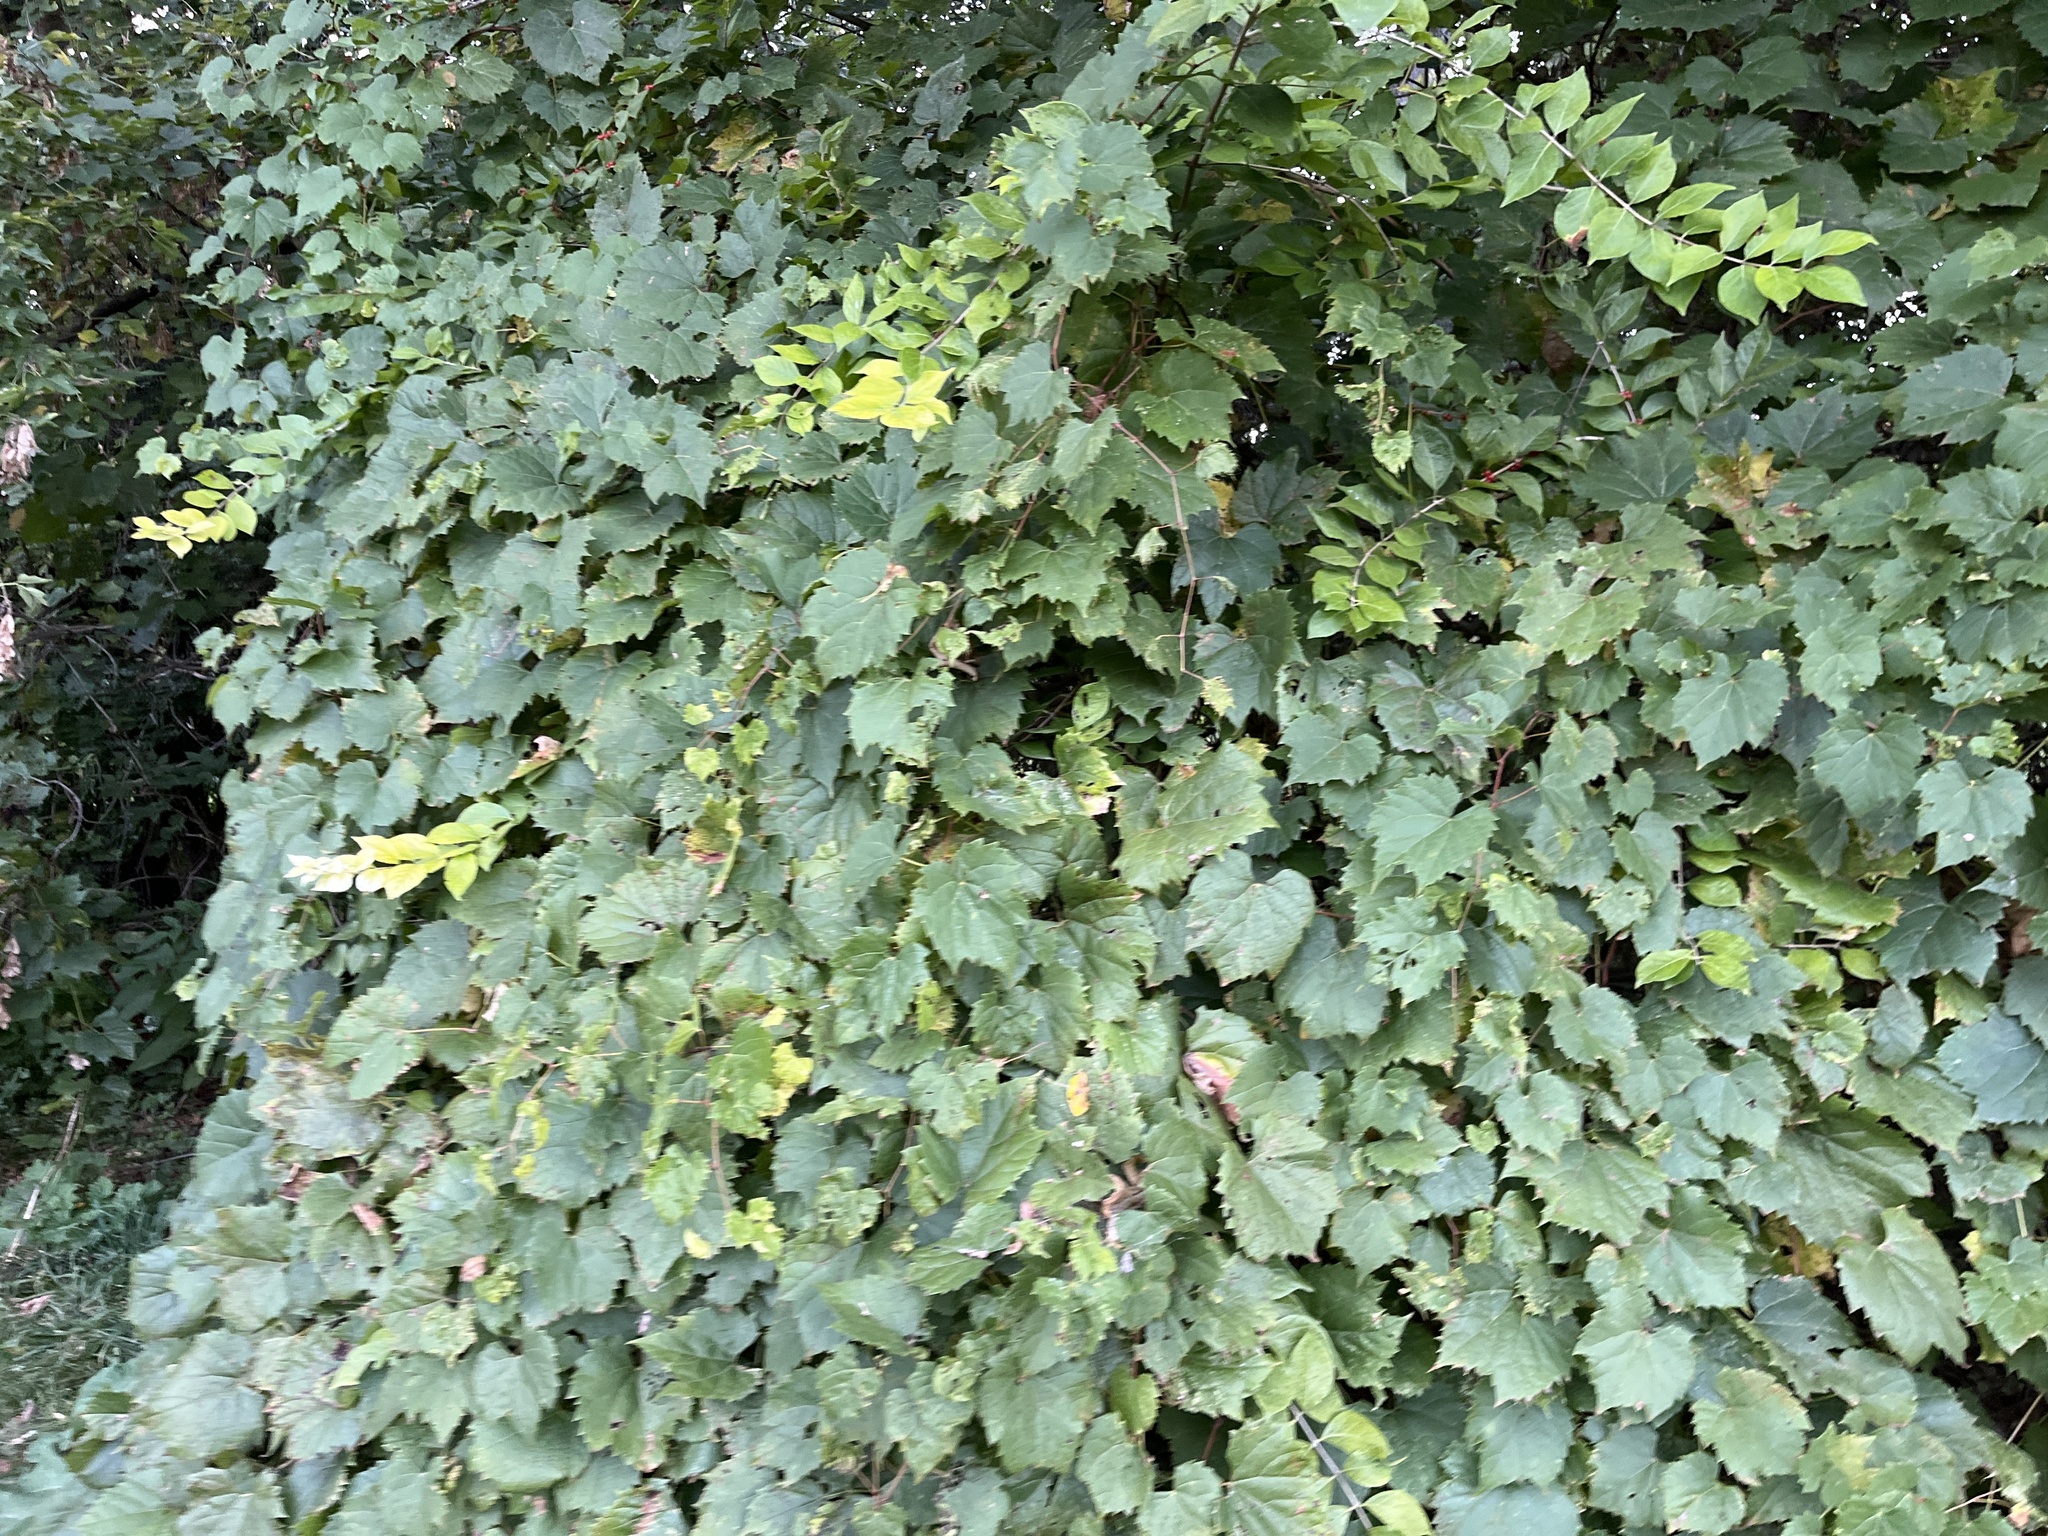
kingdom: Plantae
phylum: Tracheophyta
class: Magnoliopsida
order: Vitales
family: Vitaceae
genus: Vitis
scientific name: Vitis riparia
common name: Frost grape
